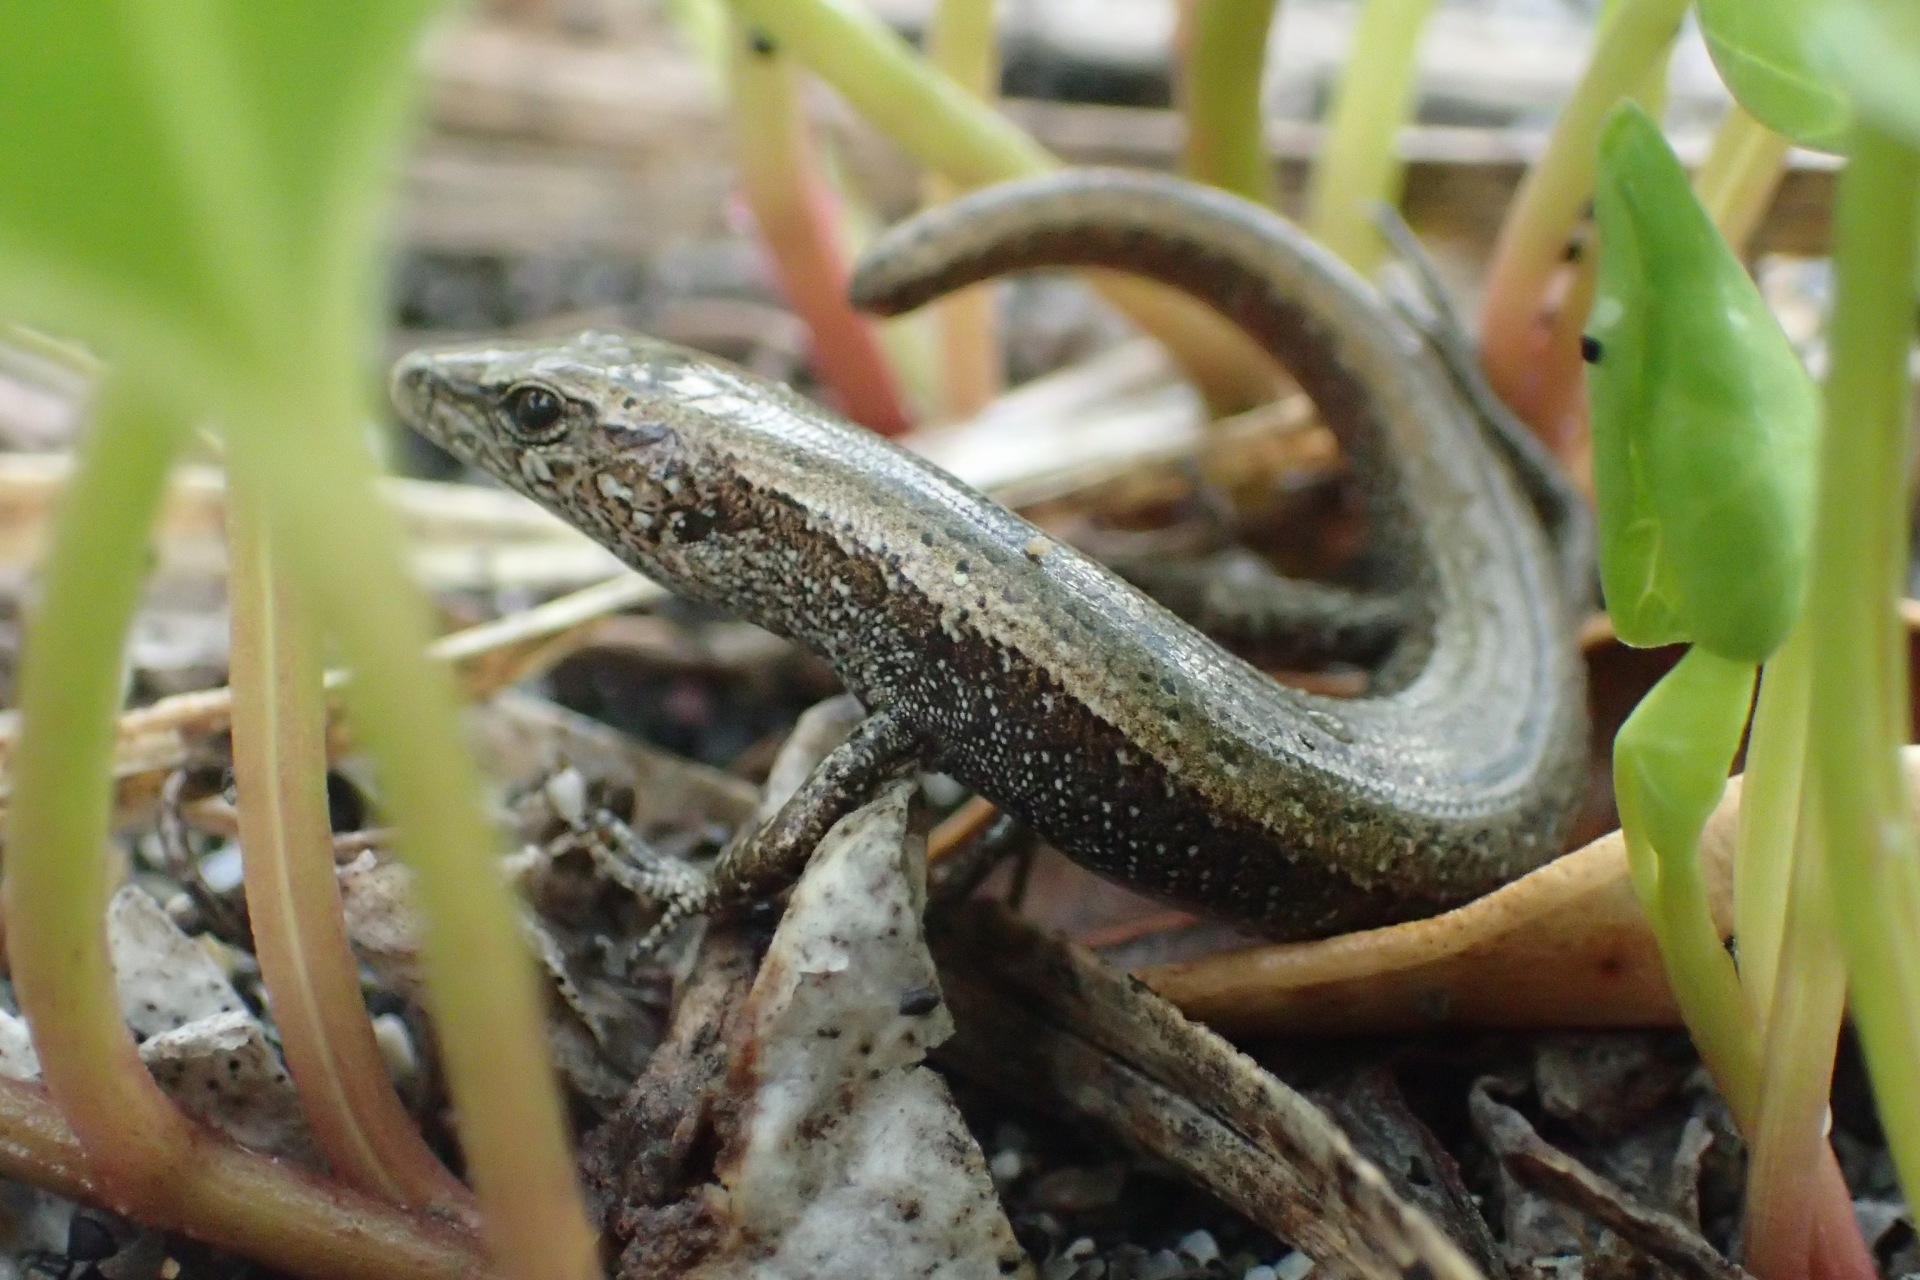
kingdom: Animalia
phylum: Chordata
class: Squamata
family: Scincidae
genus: Oligosoma
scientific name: Oligosoma smithi
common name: Shore skink
